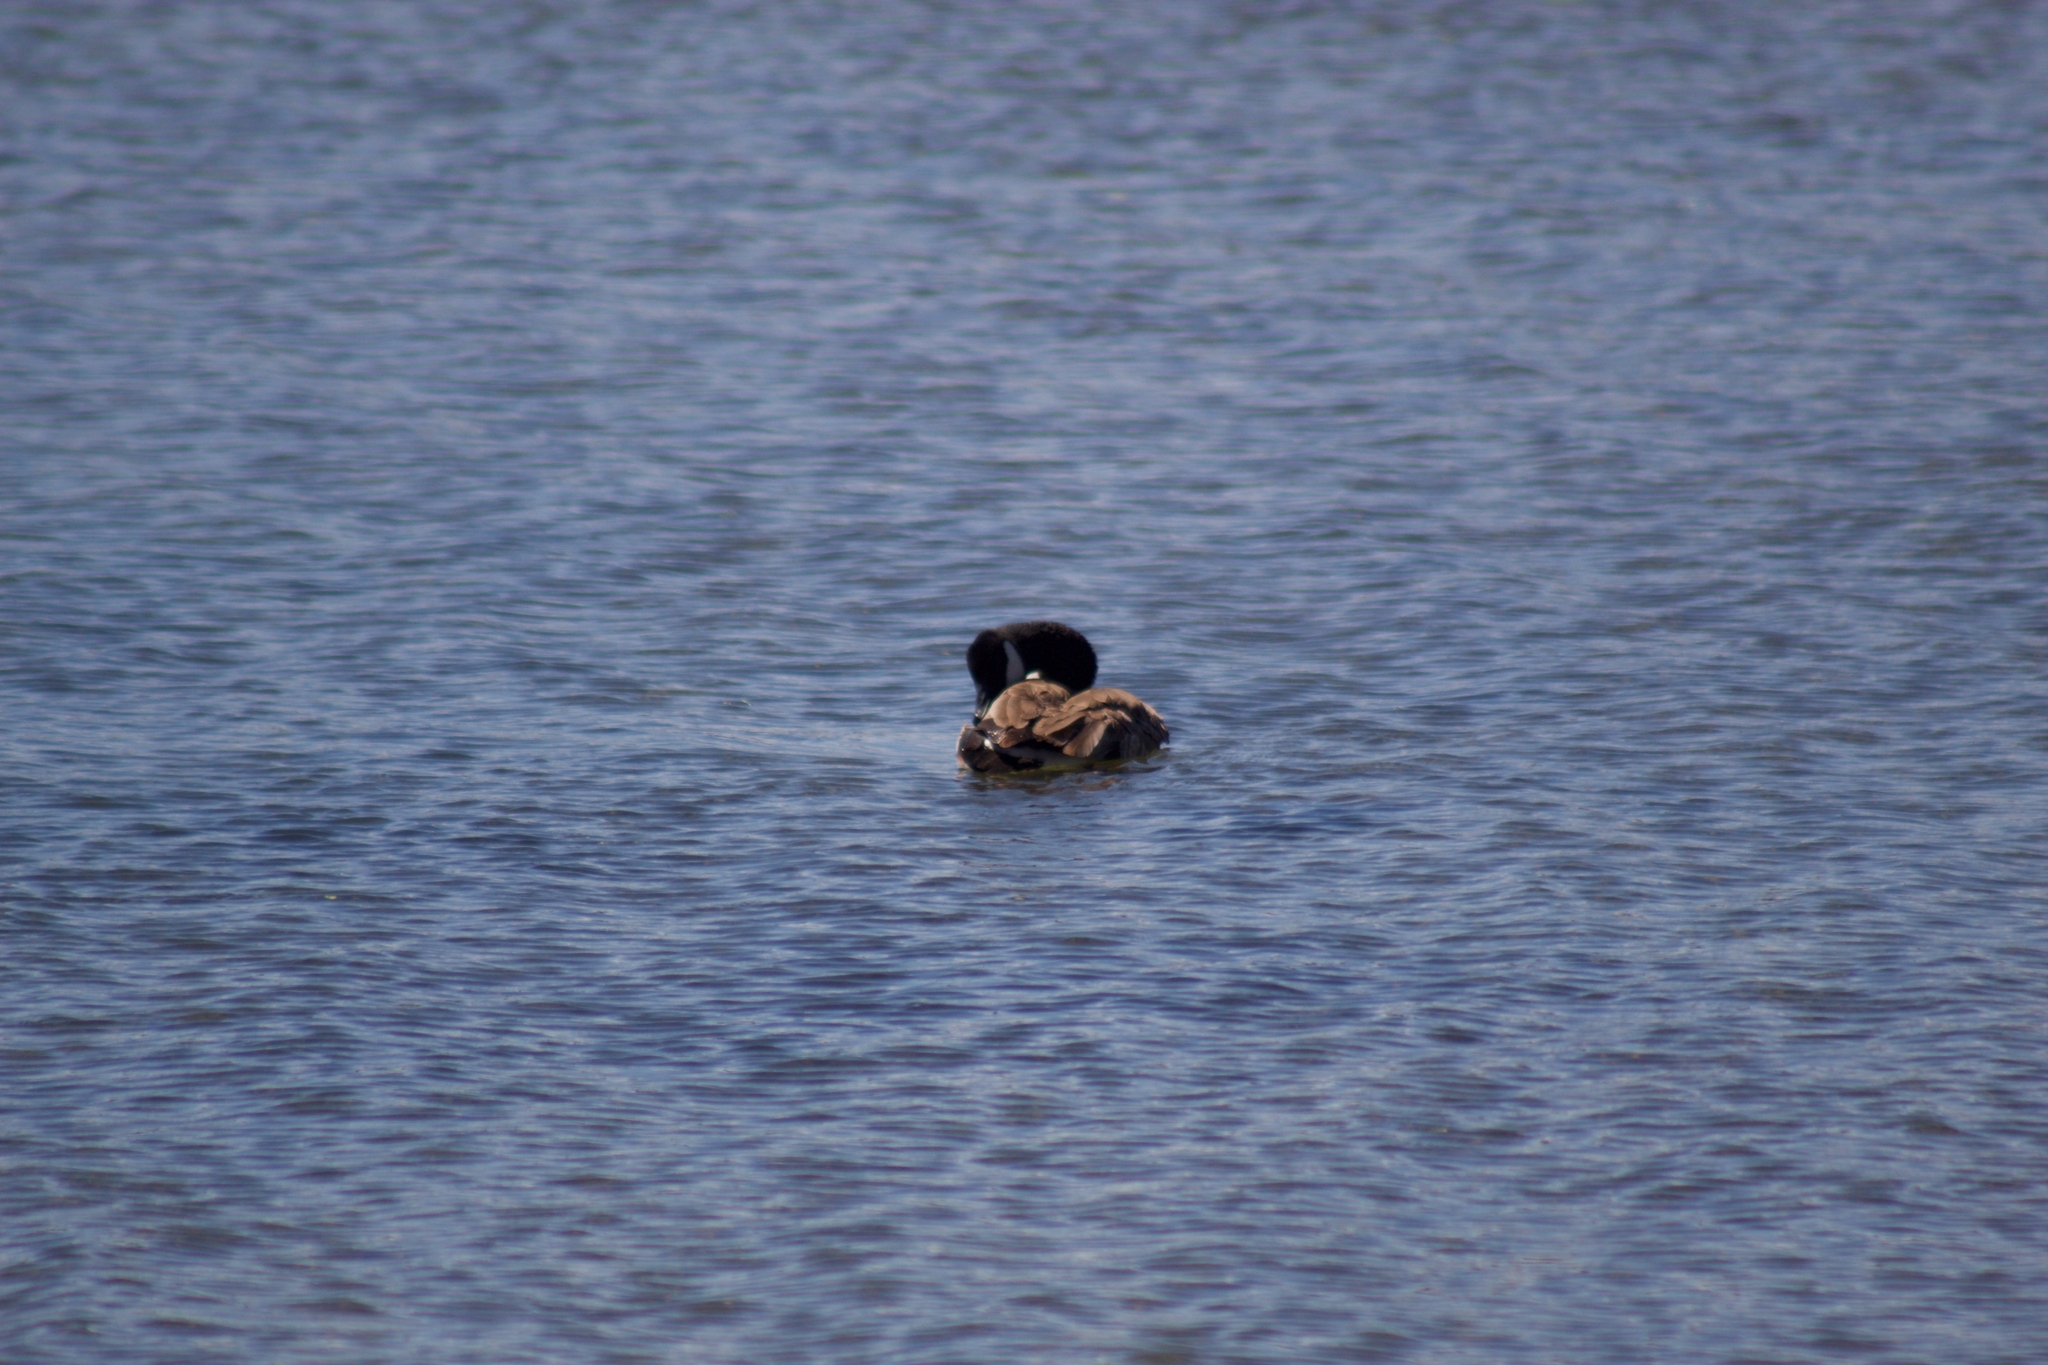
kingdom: Animalia
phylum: Chordata
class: Aves
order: Anseriformes
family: Anatidae
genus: Branta
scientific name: Branta canadensis
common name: Canada goose
